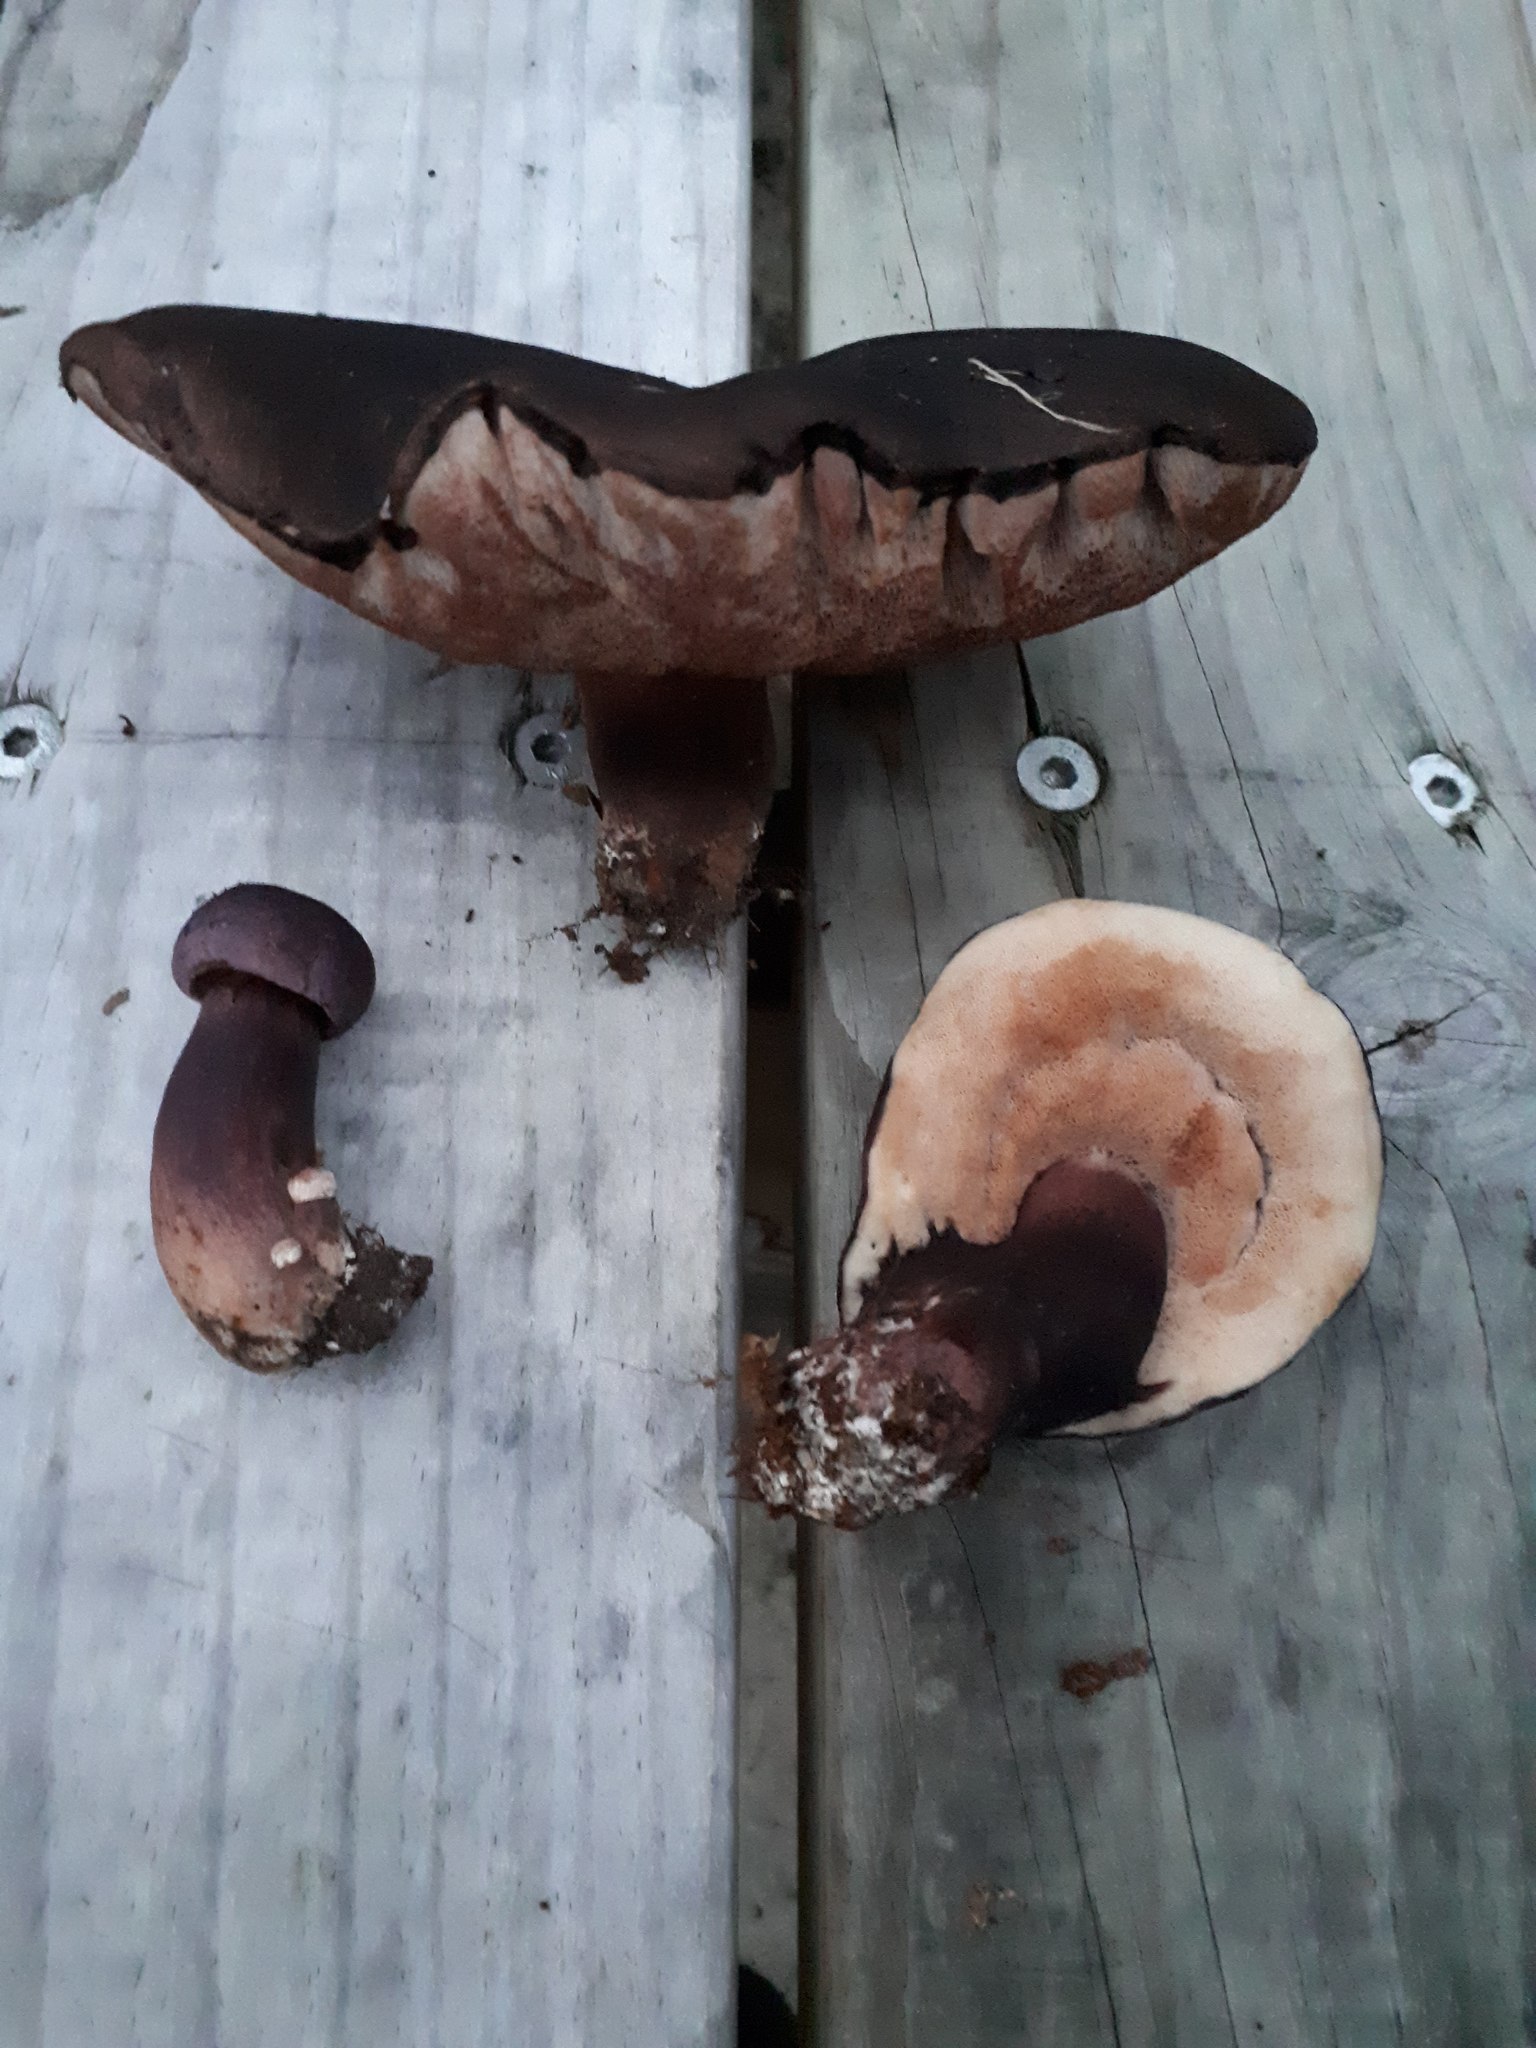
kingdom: Fungi
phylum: Basidiomycota
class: Agaricomycetes
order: Boletales
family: Boletaceae
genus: Porphyrellus
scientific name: Porphyrellus formosus
